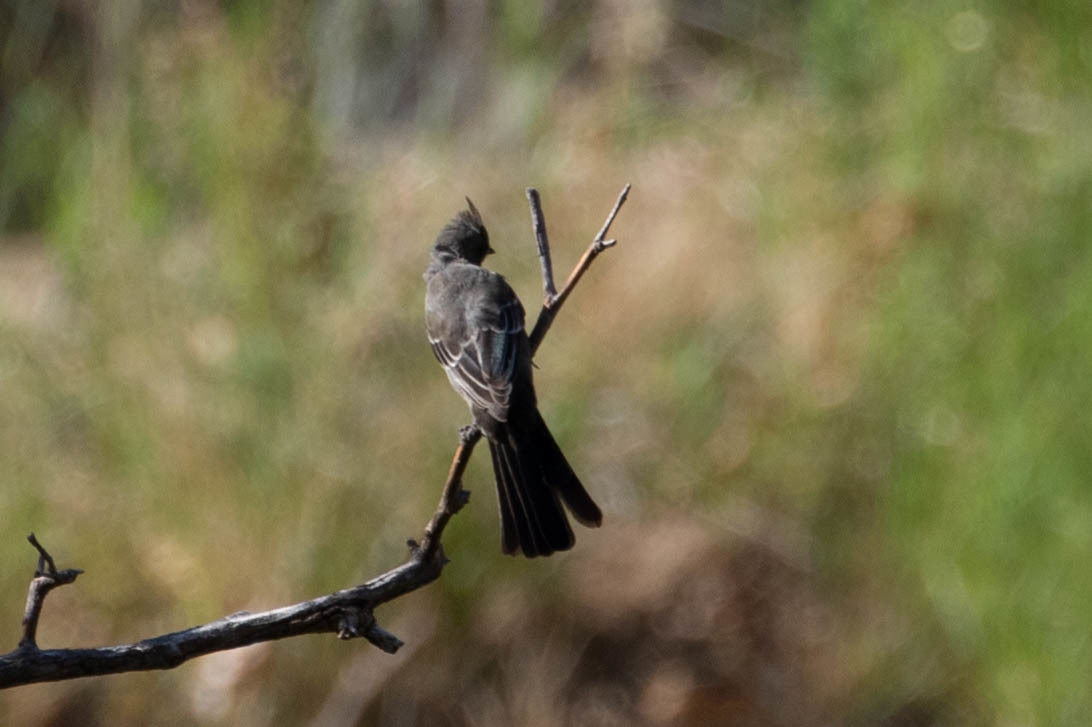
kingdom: Animalia
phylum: Chordata
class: Aves
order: Passeriformes
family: Ptilogonatidae
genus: Phainopepla
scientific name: Phainopepla nitens
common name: Phainopepla
